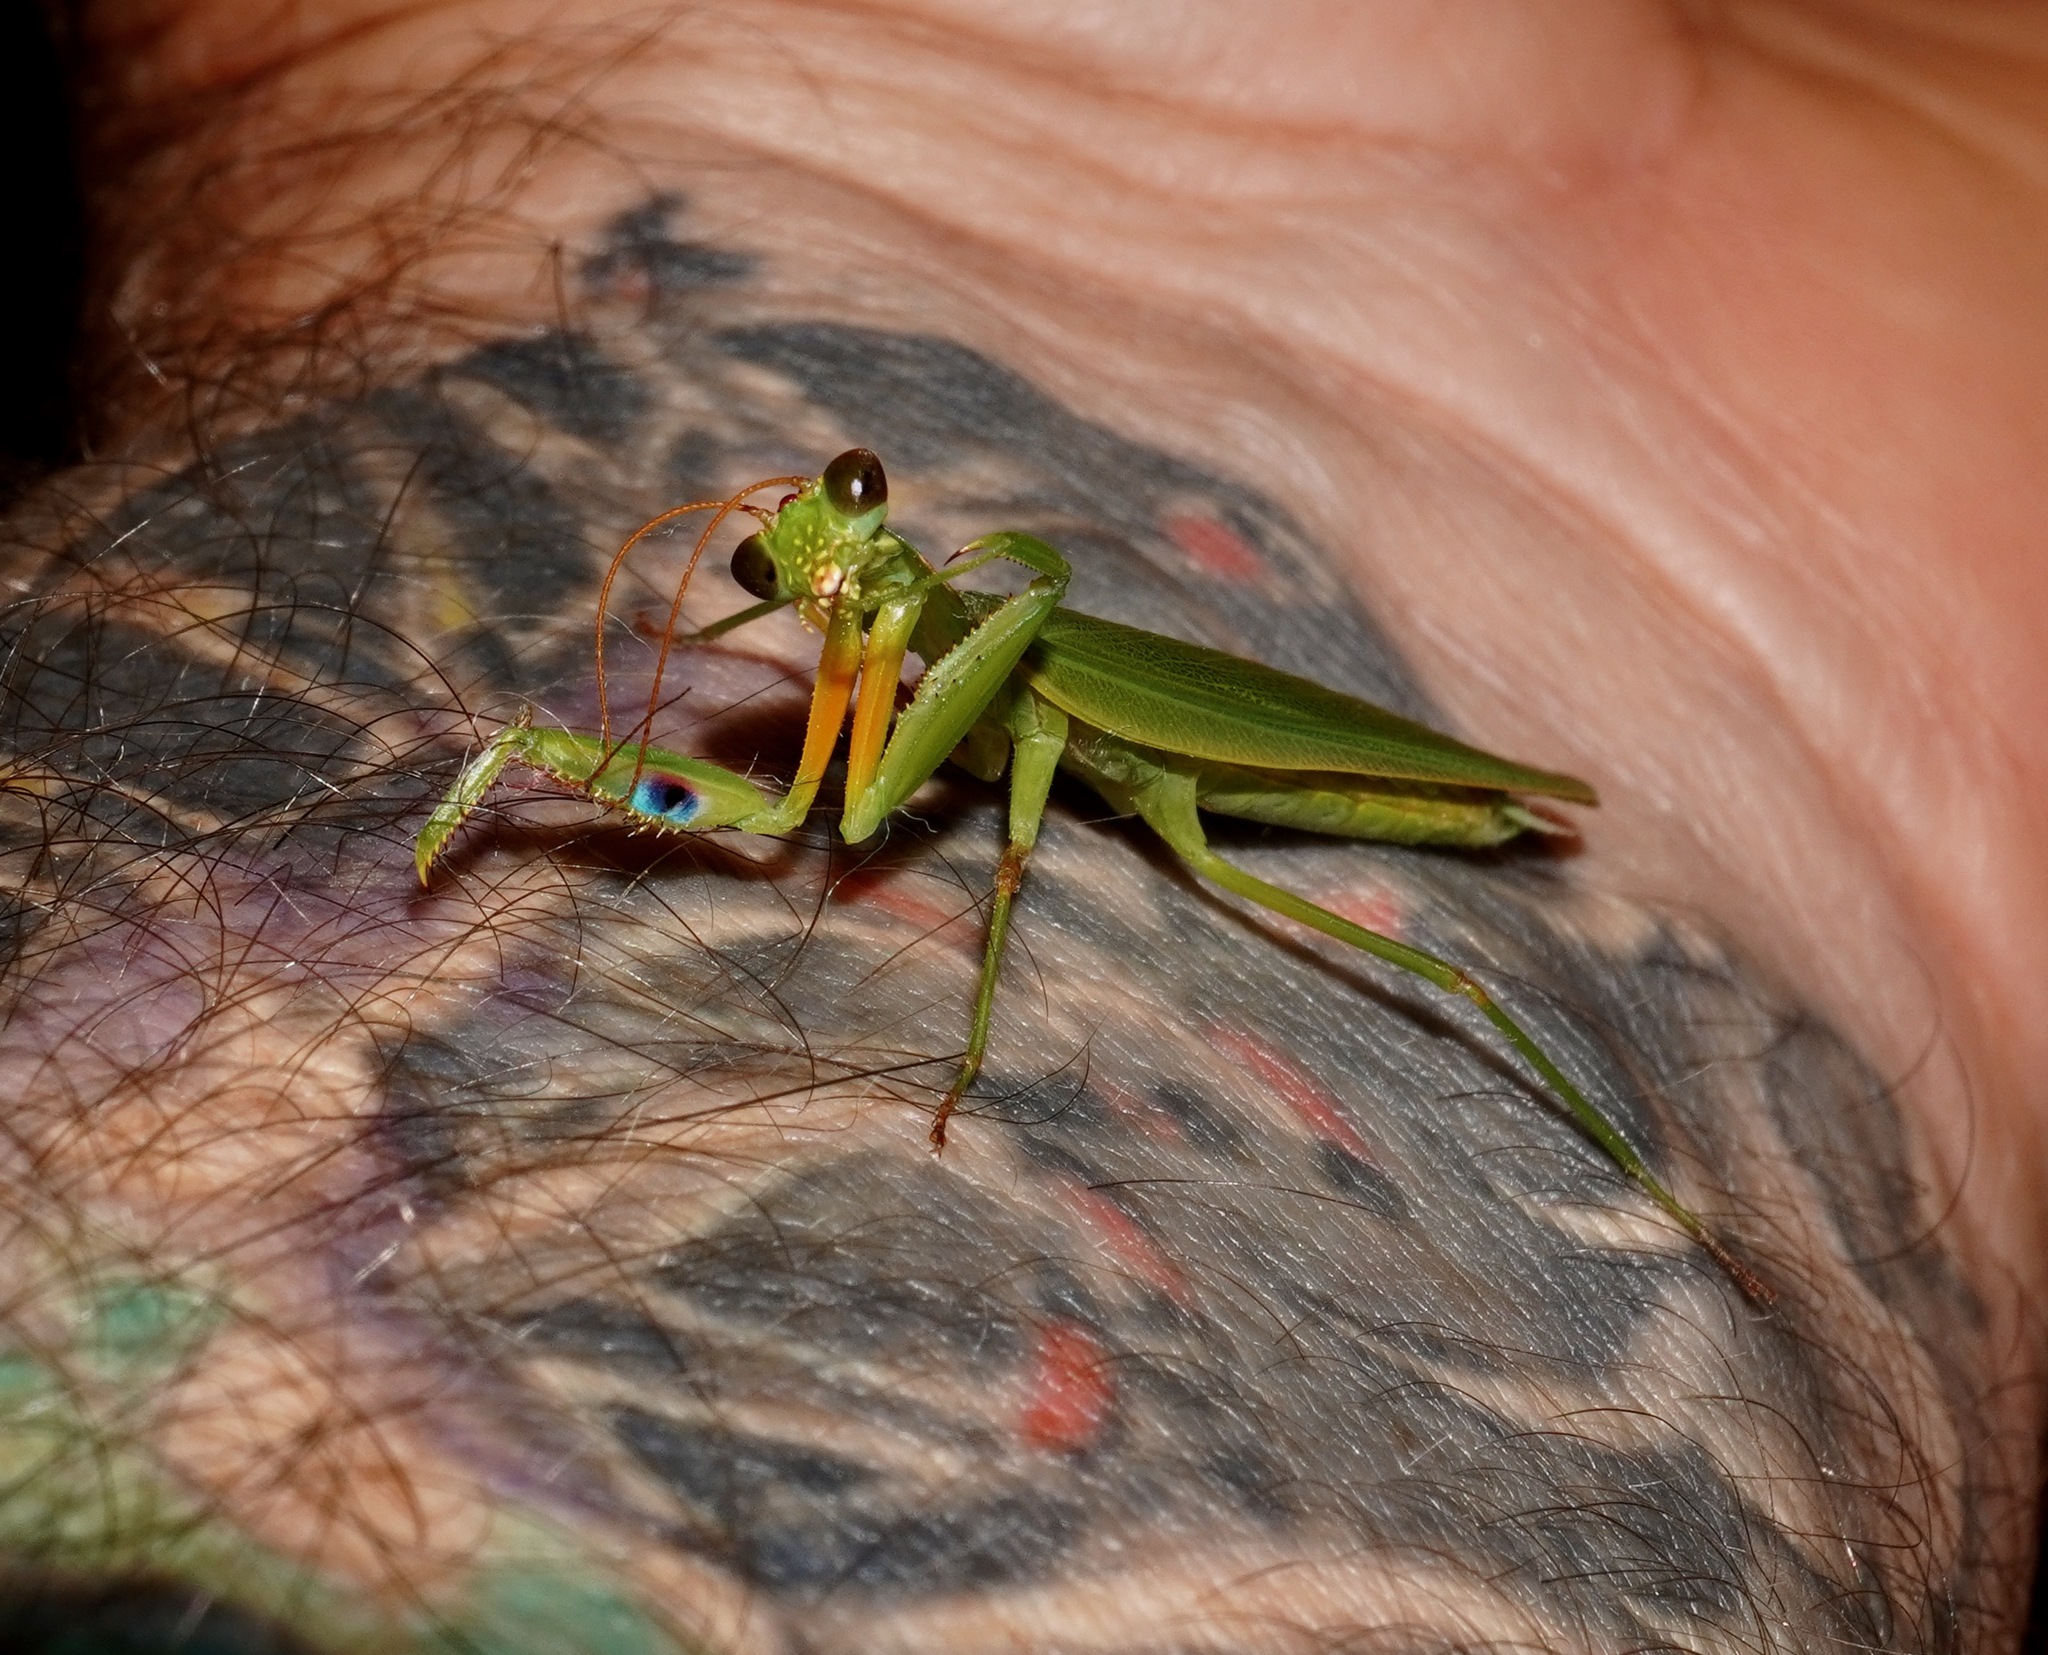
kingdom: Animalia
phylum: Arthropoda
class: Insecta
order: Mantodea
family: Mantidae
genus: Orthodera
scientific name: Orthodera novaezealandiae
